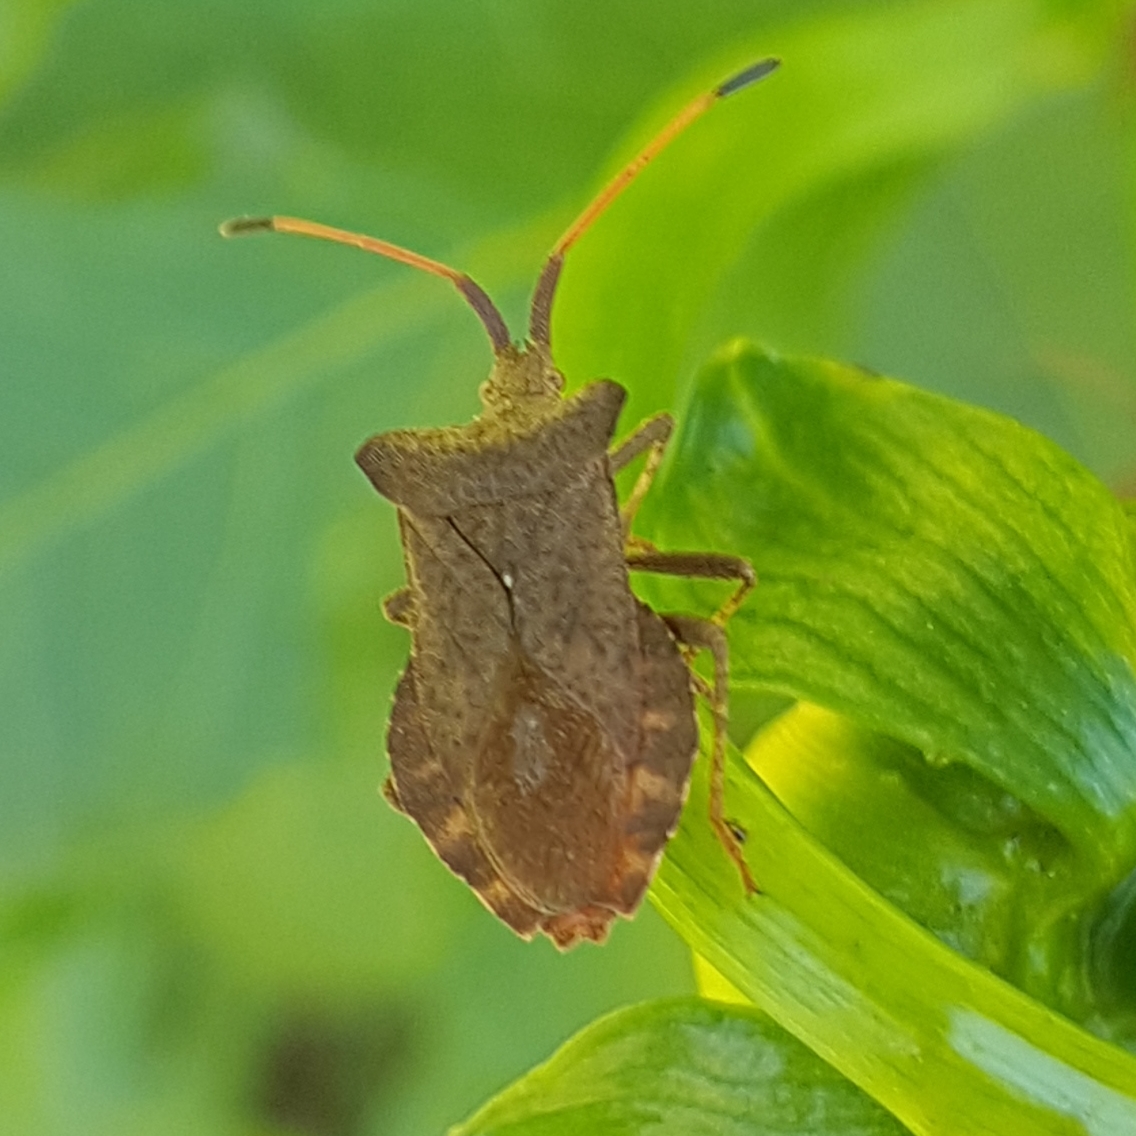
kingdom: Animalia
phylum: Arthropoda
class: Insecta
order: Hemiptera
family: Coreidae
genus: Coreus
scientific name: Coreus marginatus
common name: Dock bug
